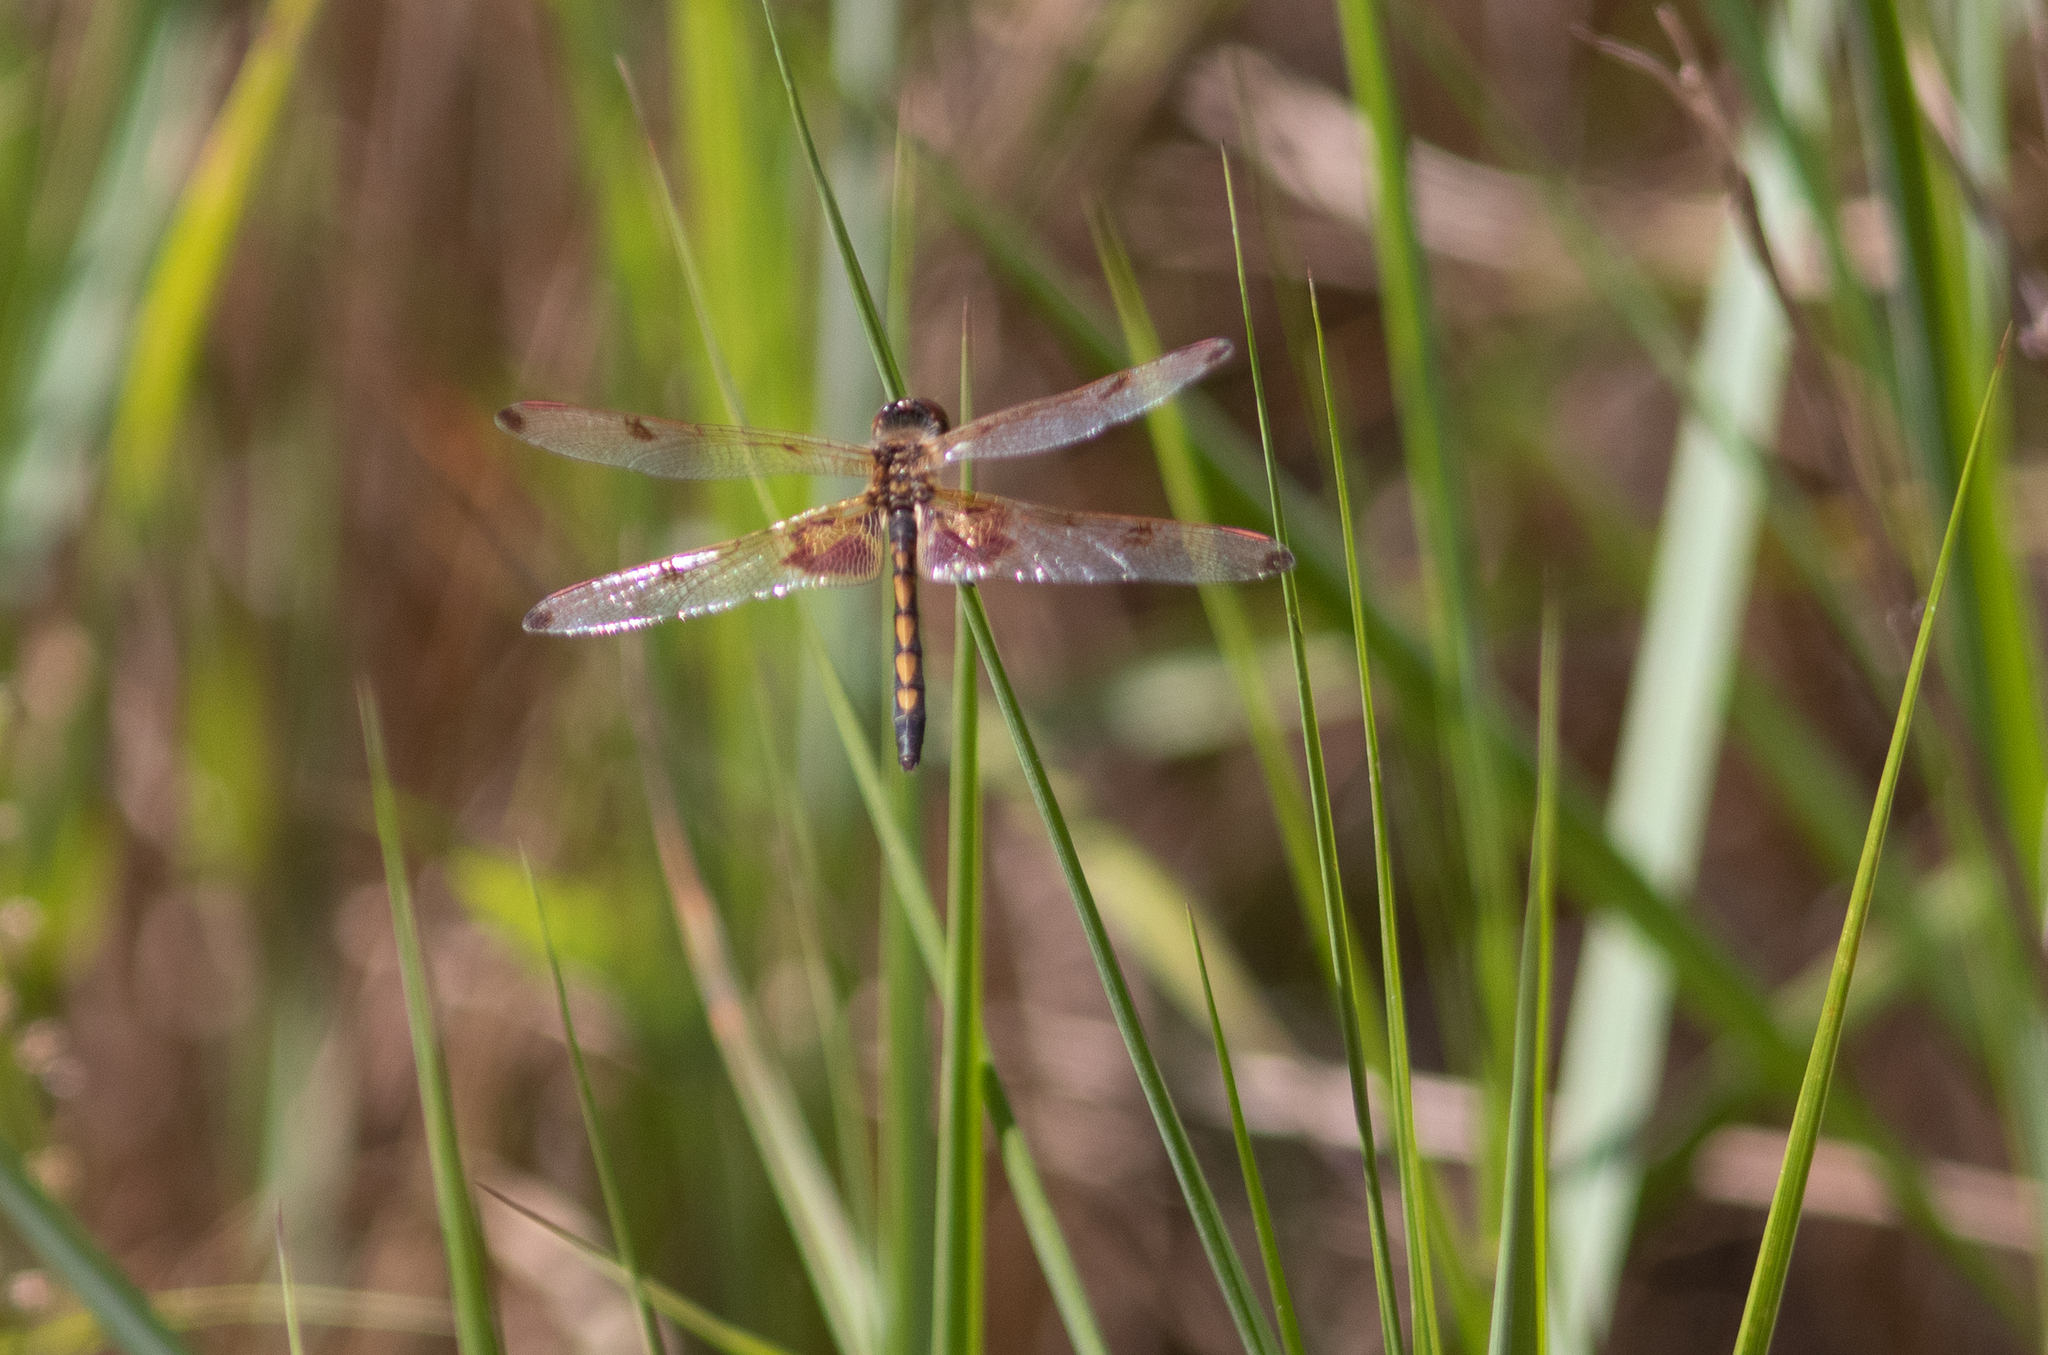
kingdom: Animalia
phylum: Arthropoda
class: Insecta
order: Odonata
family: Libellulidae
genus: Celithemis
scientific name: Celithemis elisa
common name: Calico pennant
